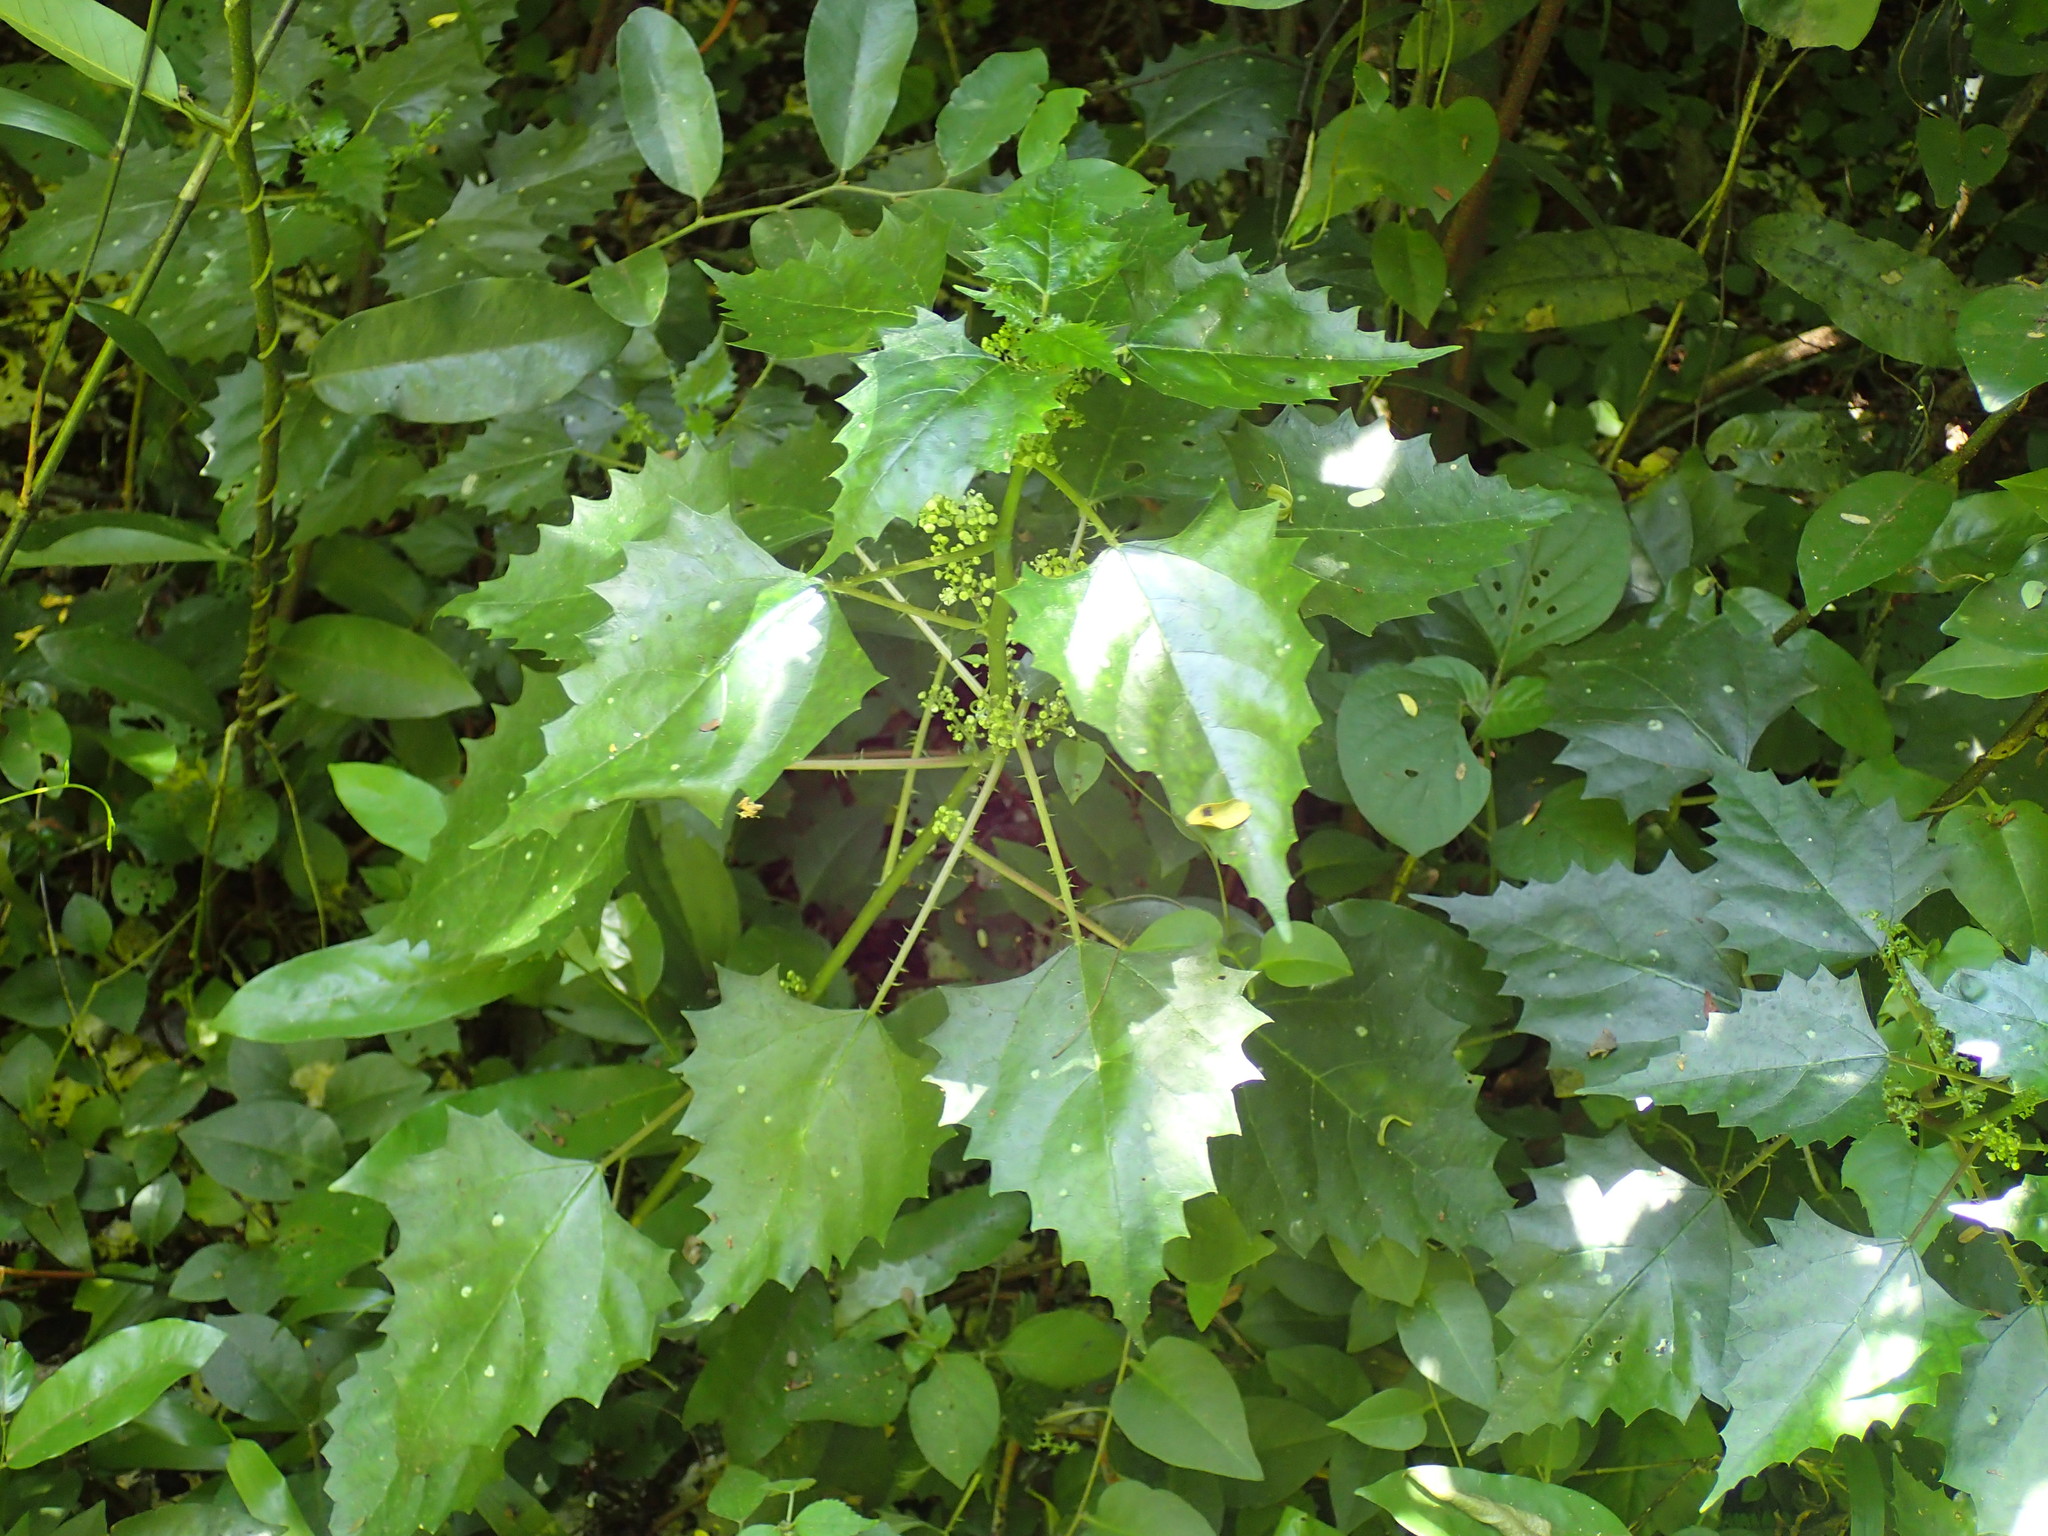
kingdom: Plantae
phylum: Tracheophyta
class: Magnoliopsida
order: Rosales
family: Urticaceae
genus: Laportea
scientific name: Laportea grossa
